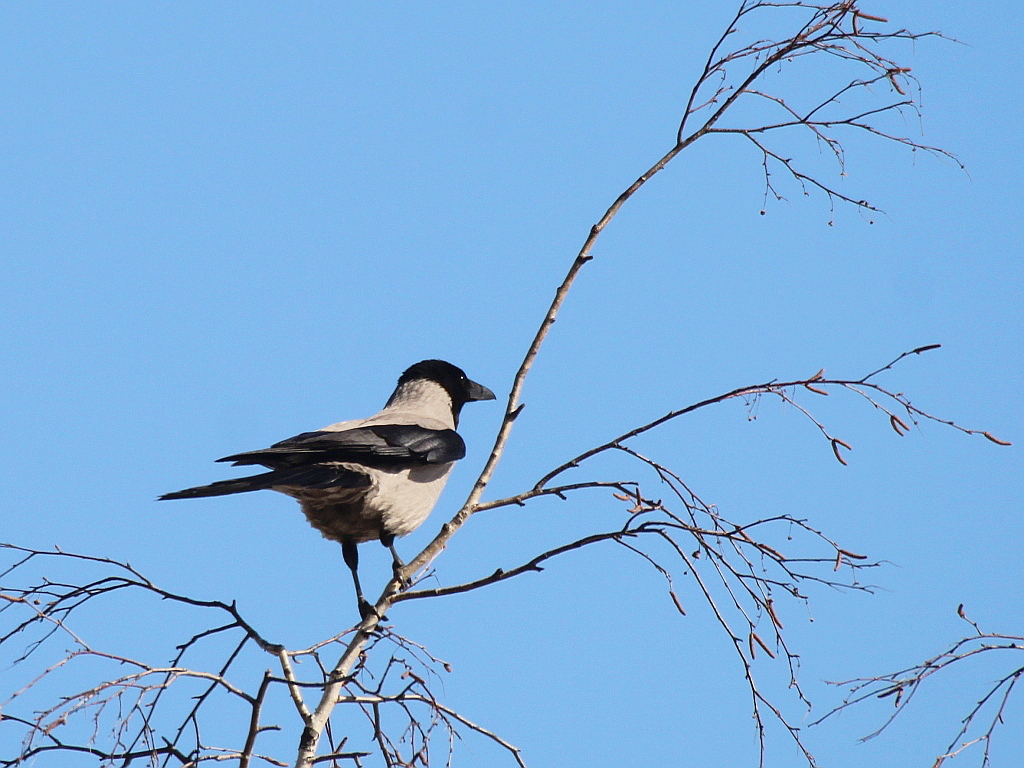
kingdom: Animalia
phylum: Chordata
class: Aves
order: Passeriformes
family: Corvidae
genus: Corvus
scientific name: Corvus cornix
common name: Hooded crow
